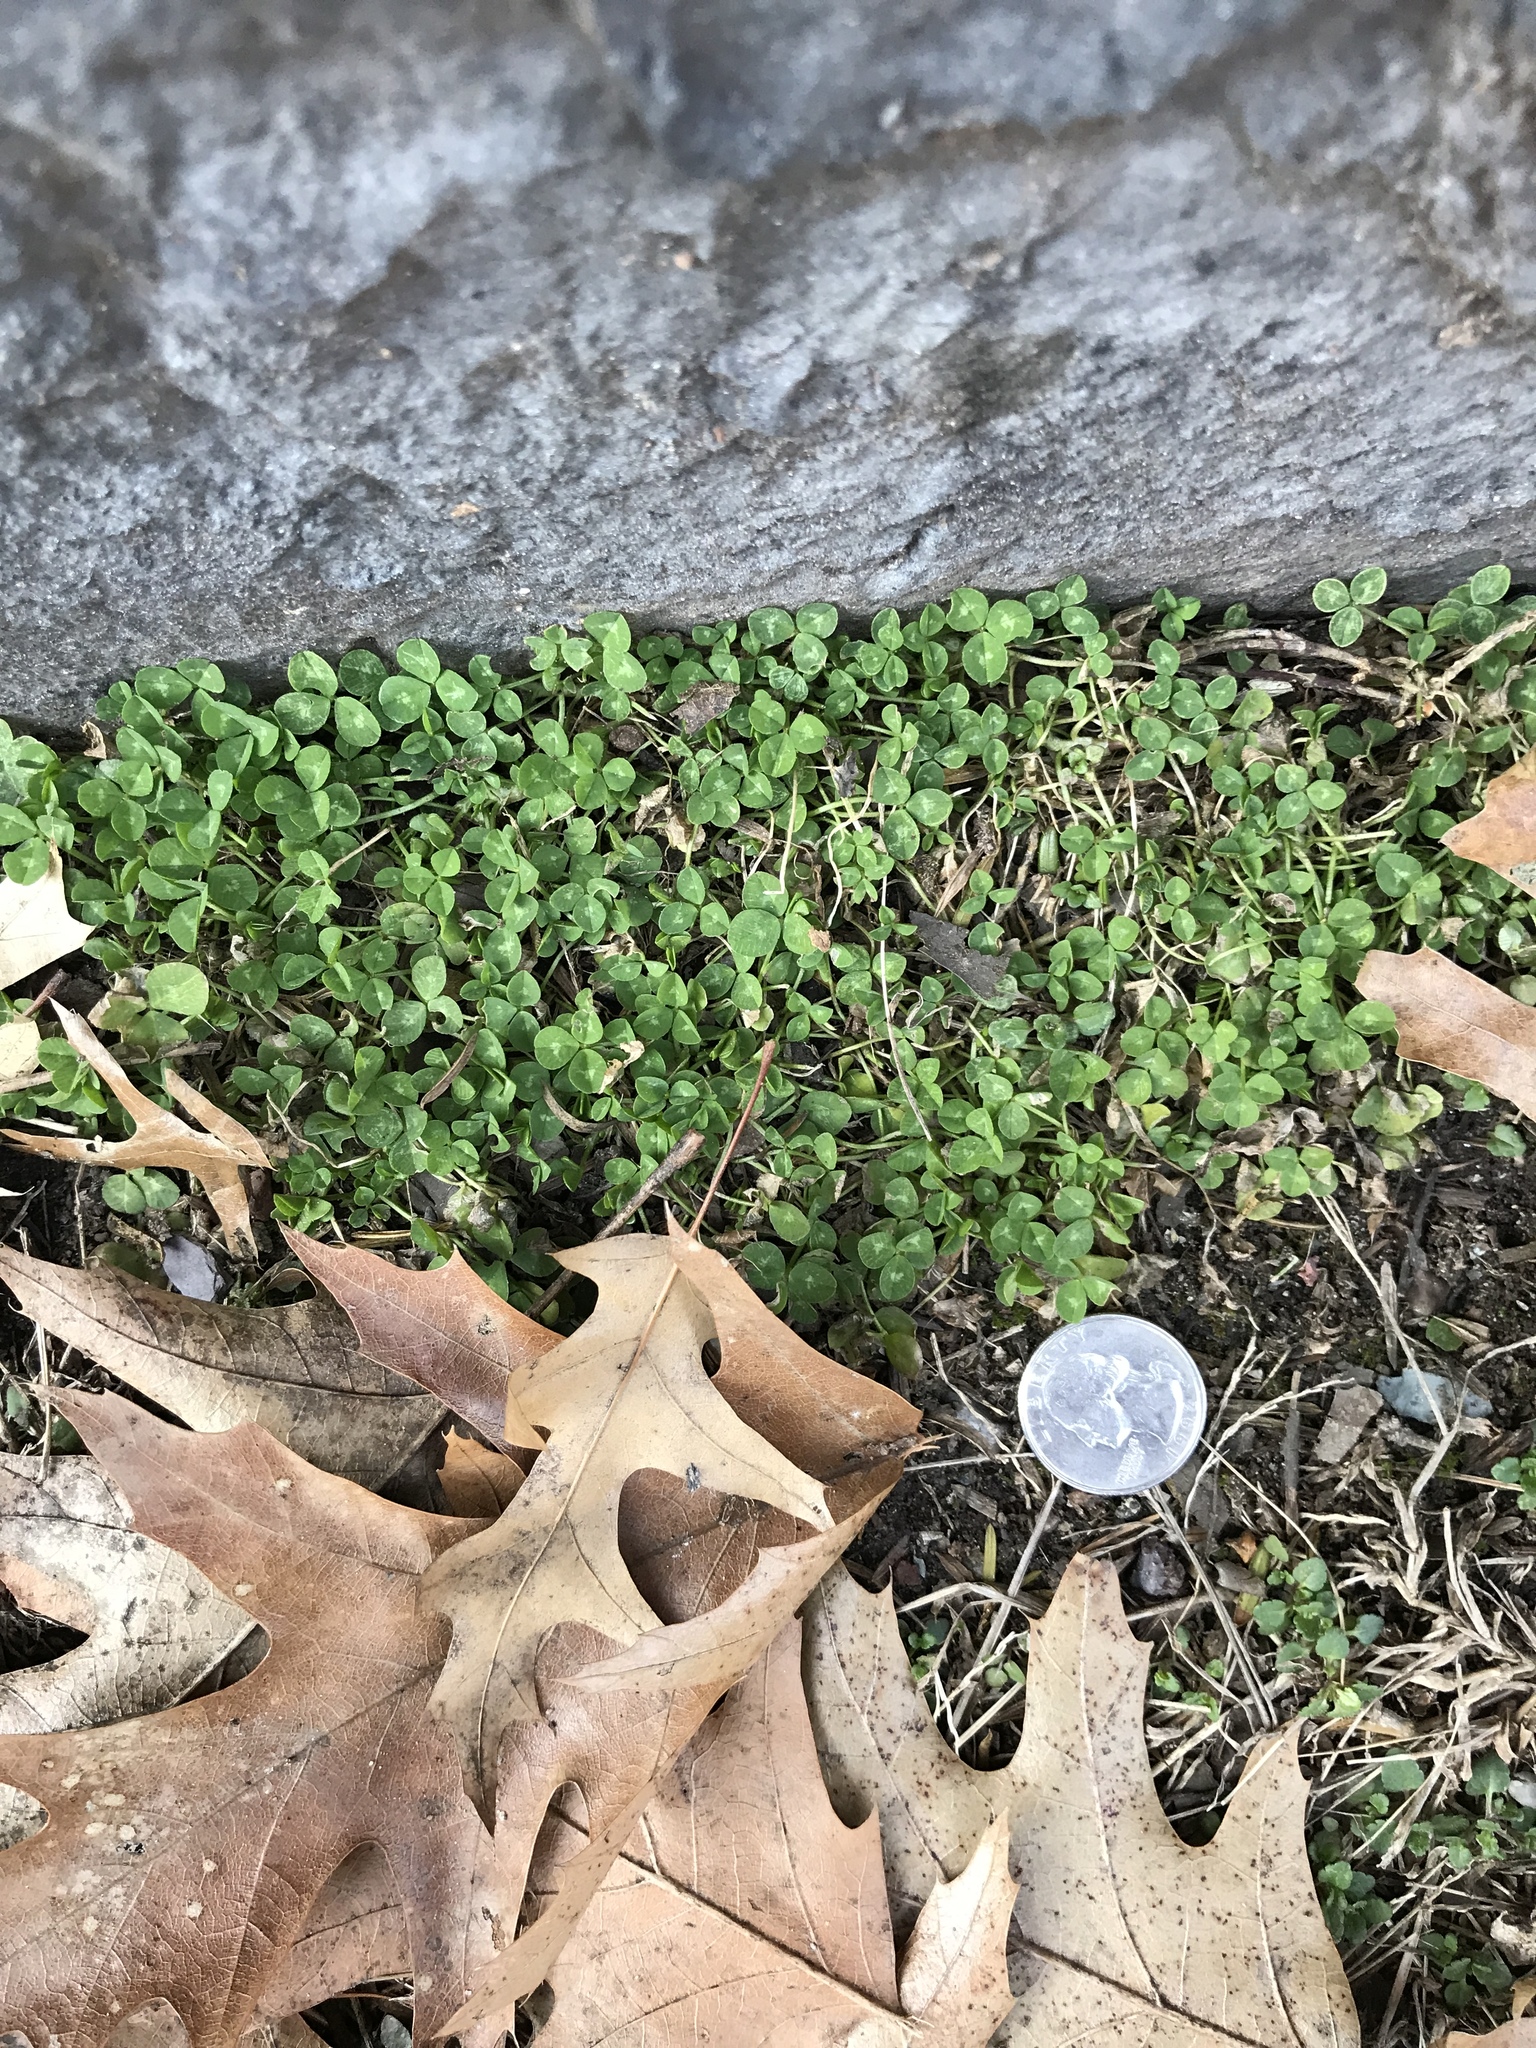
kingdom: Plantae
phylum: Tracheophyta
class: Magnoliopsida
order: Fabales
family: Fabaceae
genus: Trifolium
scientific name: Trifolium repens
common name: White clover
